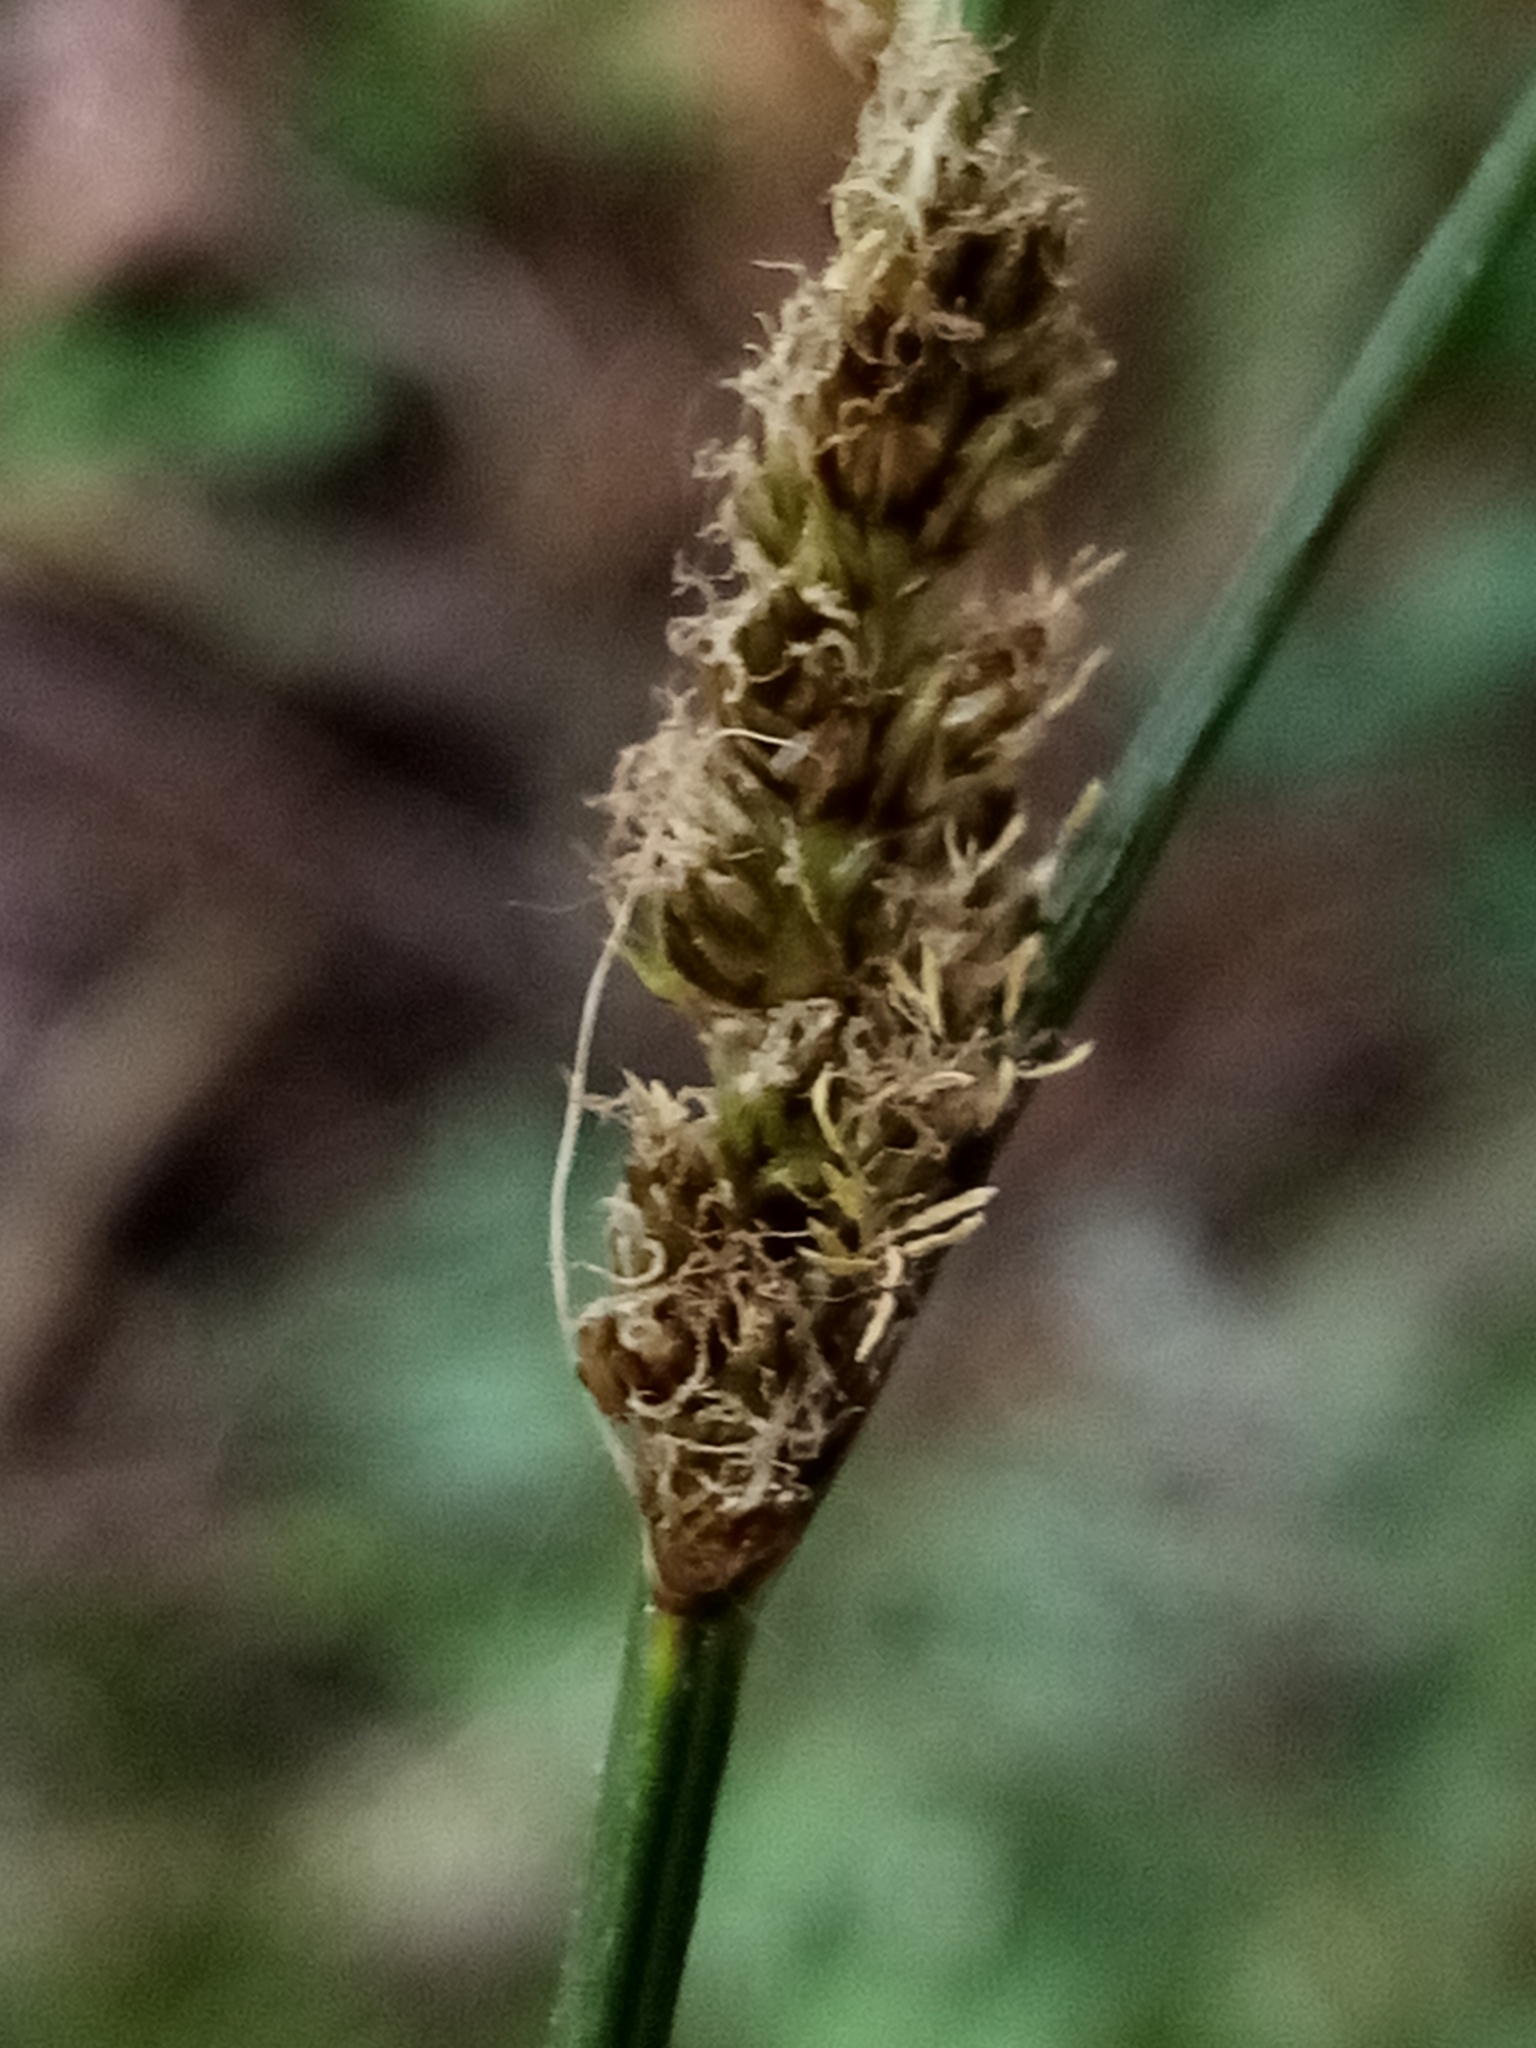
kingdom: Plantae
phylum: Tracheophyta
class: Liliopsida
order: Poales
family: Cyperaceae
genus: Carex
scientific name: Carex virgata
